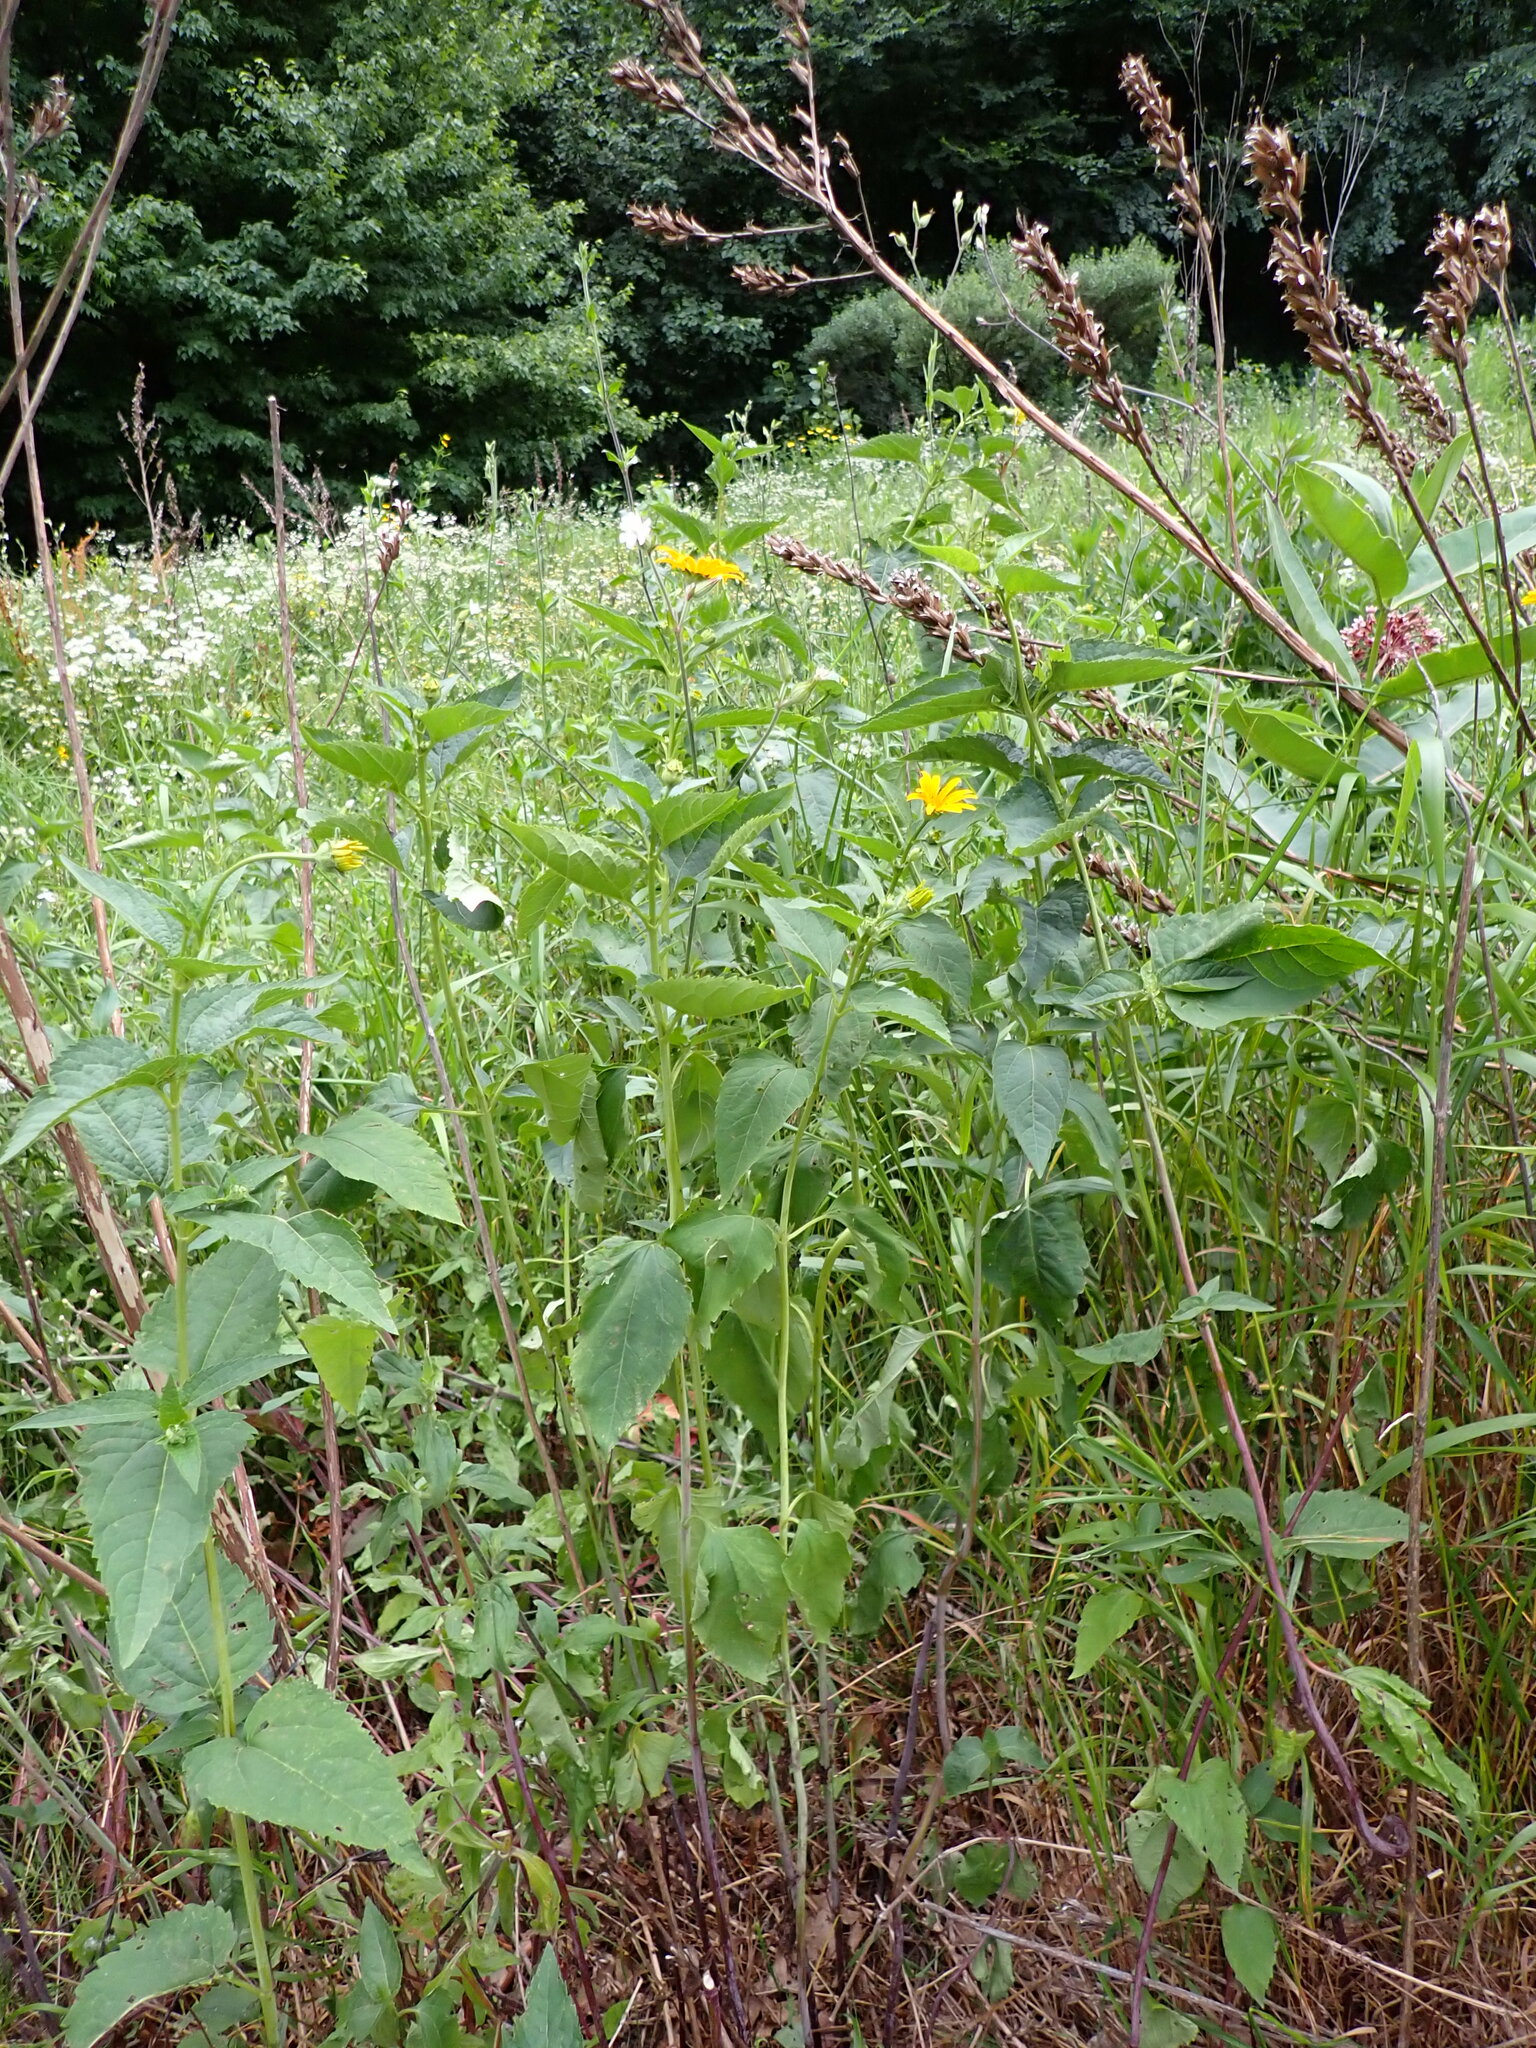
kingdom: Plantae
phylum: Tracheophyta
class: Magnoliopsida
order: Asterales
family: Asteraceae
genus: Heliopsis
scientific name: Heliopsis helianthoides
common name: False sunflower
